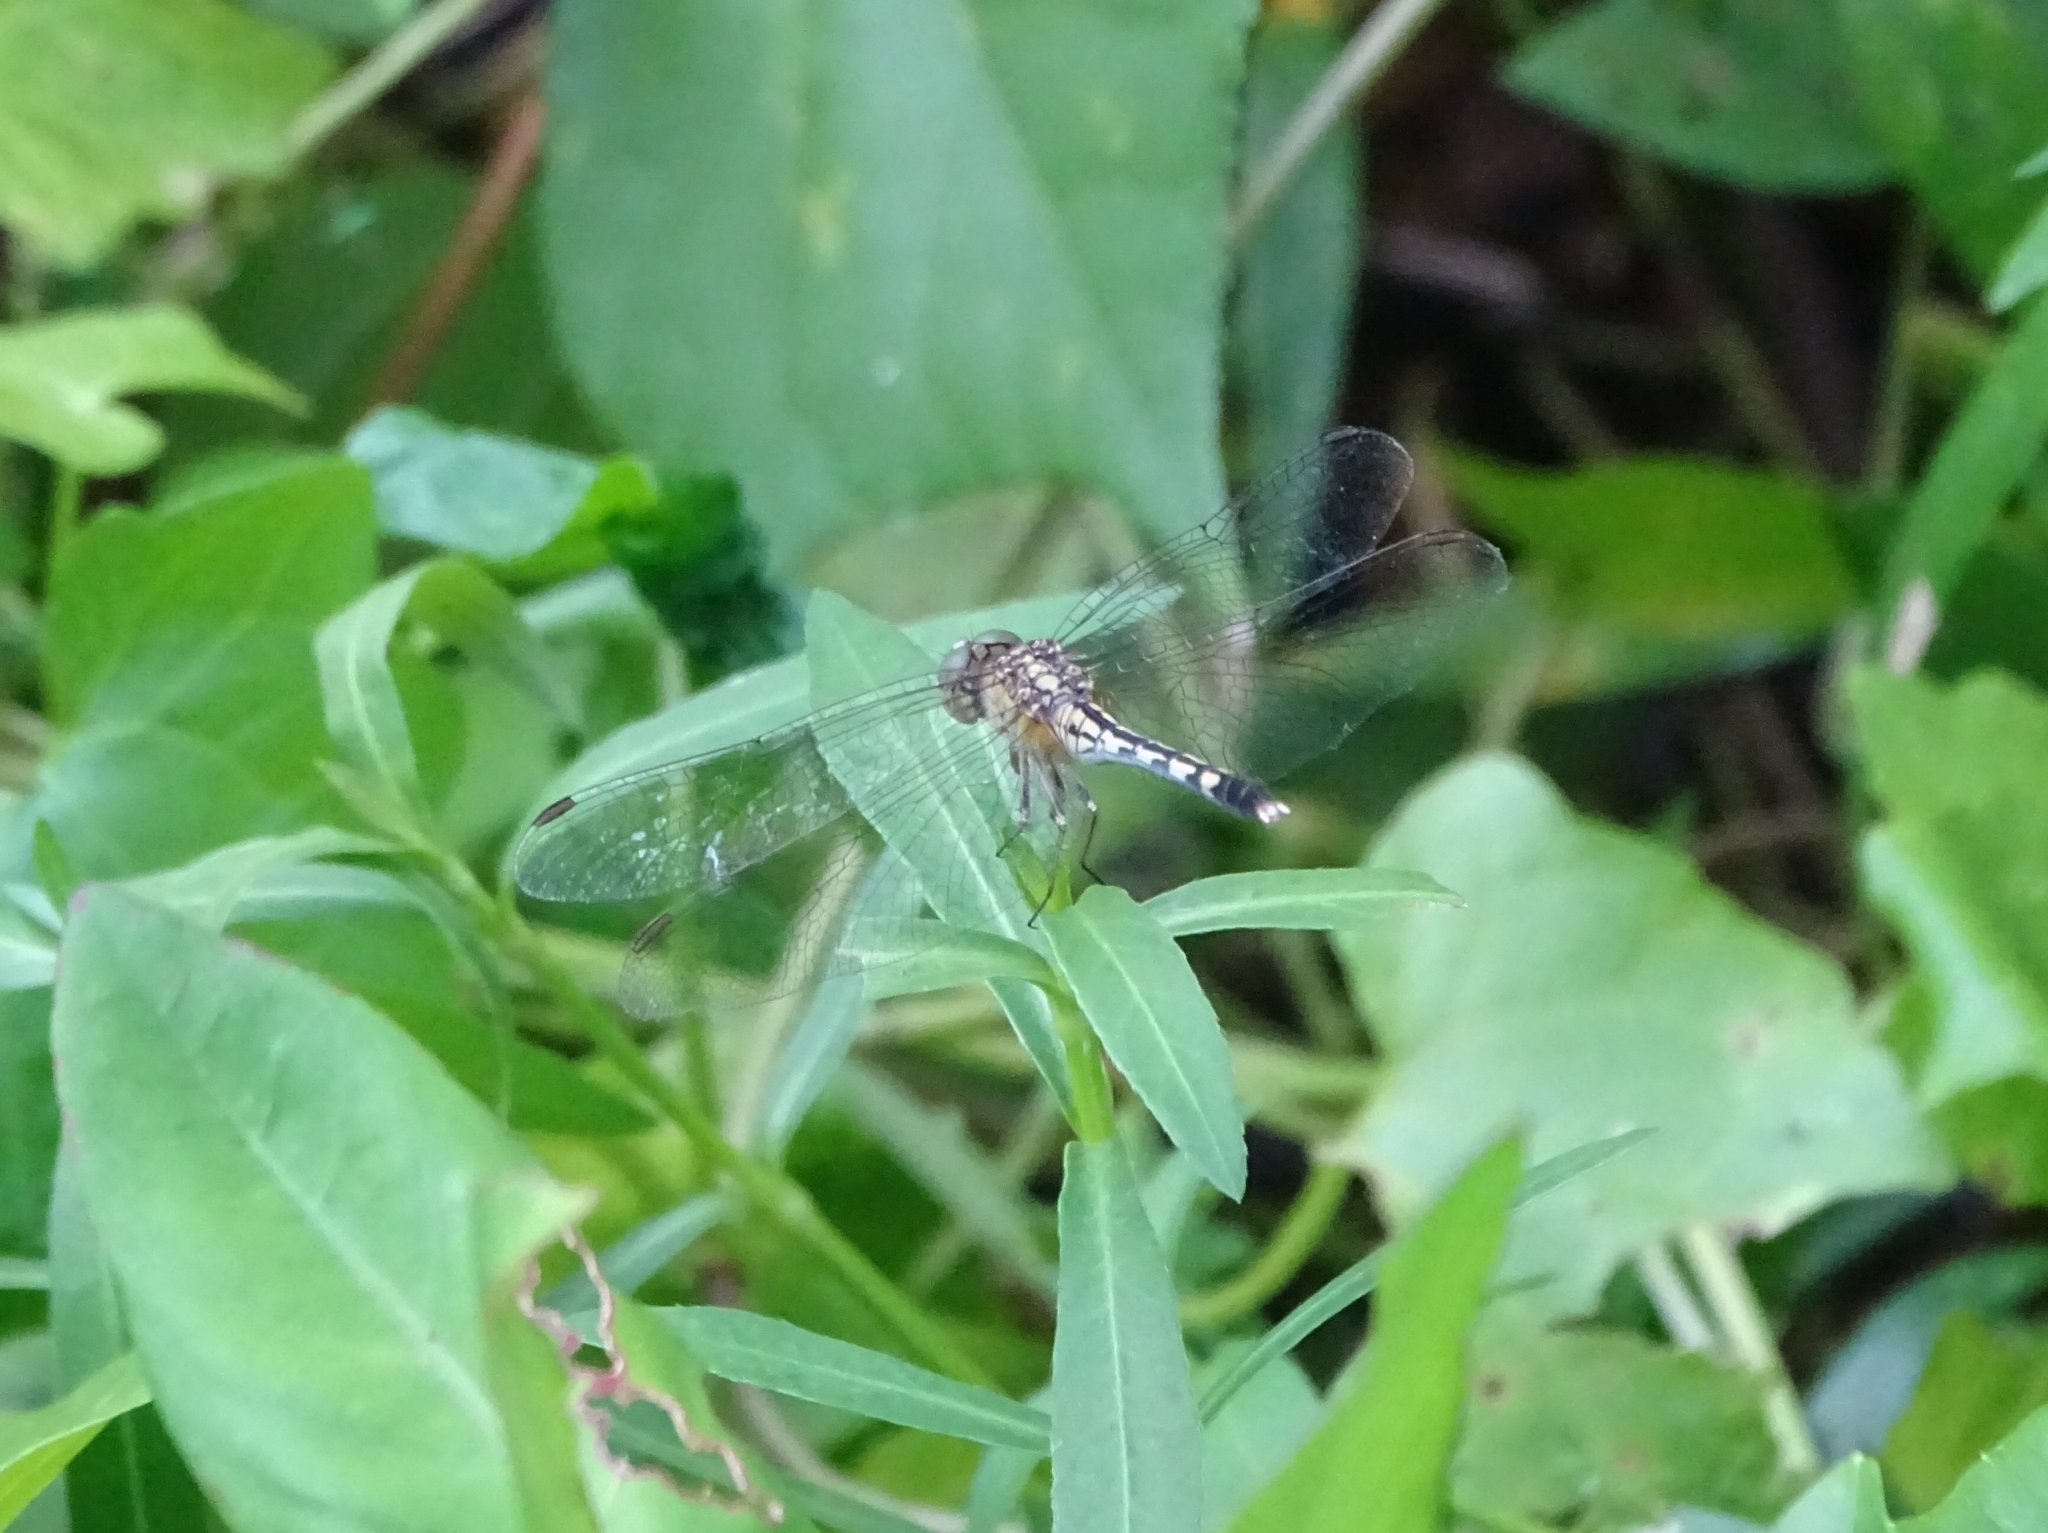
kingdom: Animalia
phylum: Arthropoda
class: Insecta
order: Odonata
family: Libellulidae
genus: Diplacodes
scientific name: Diplacodes trivialis
